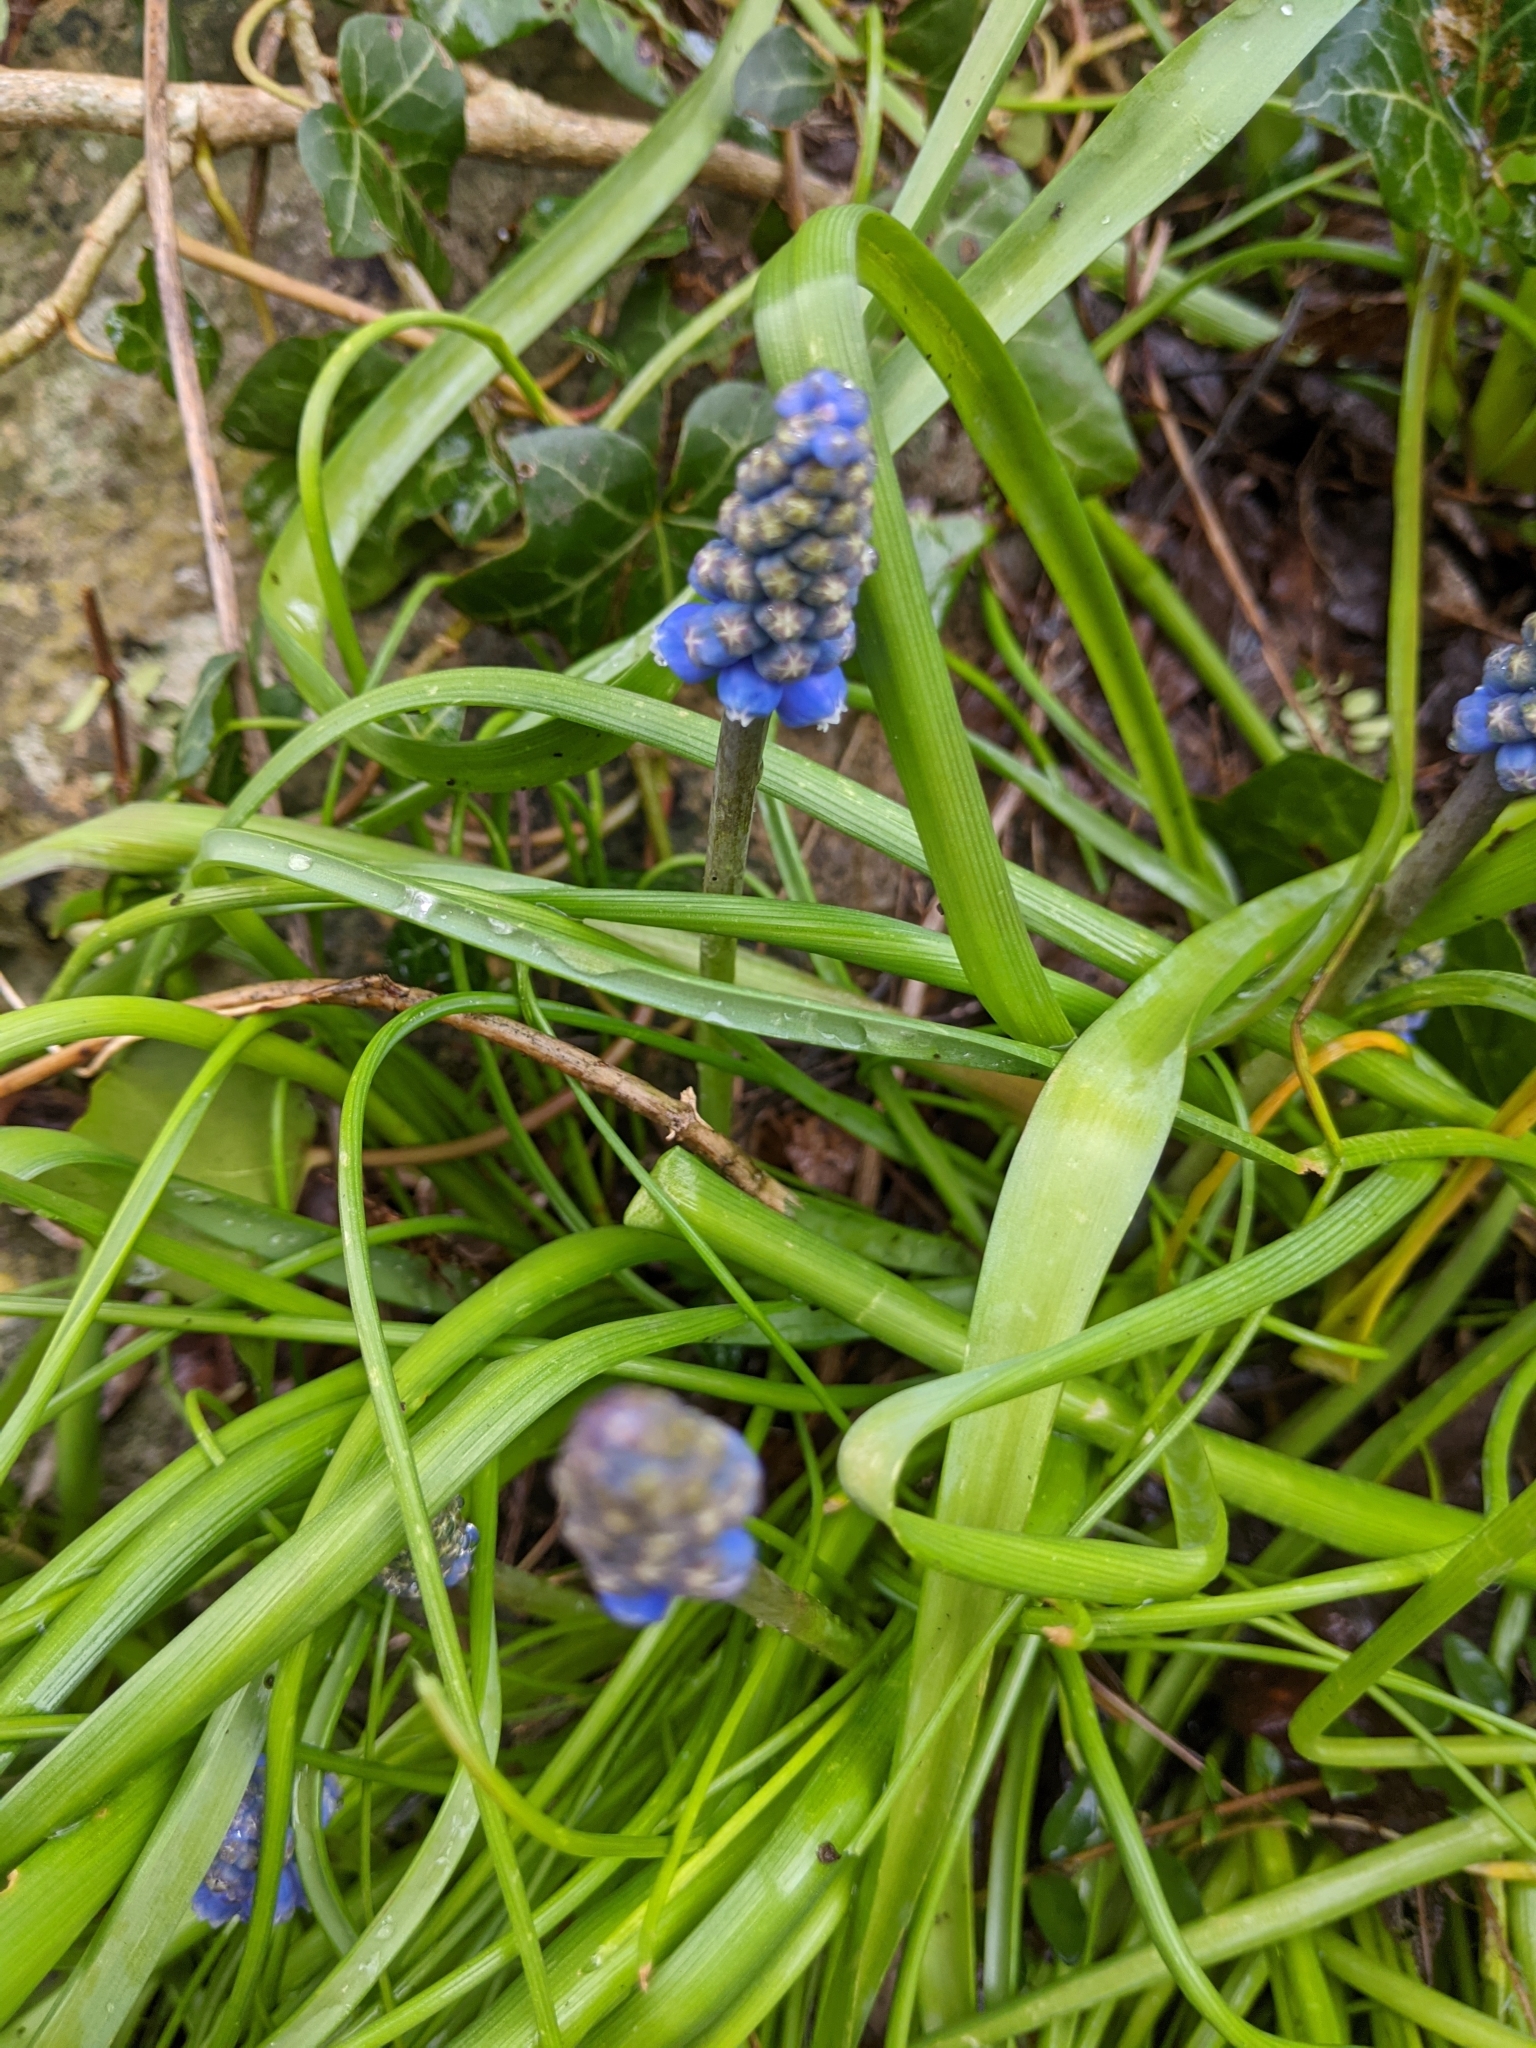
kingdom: Plantae
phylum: Tracheophyta
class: Liliopsida
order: Asparagales
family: Asparagaceae
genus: Muscari
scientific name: Muscari armeniacum
